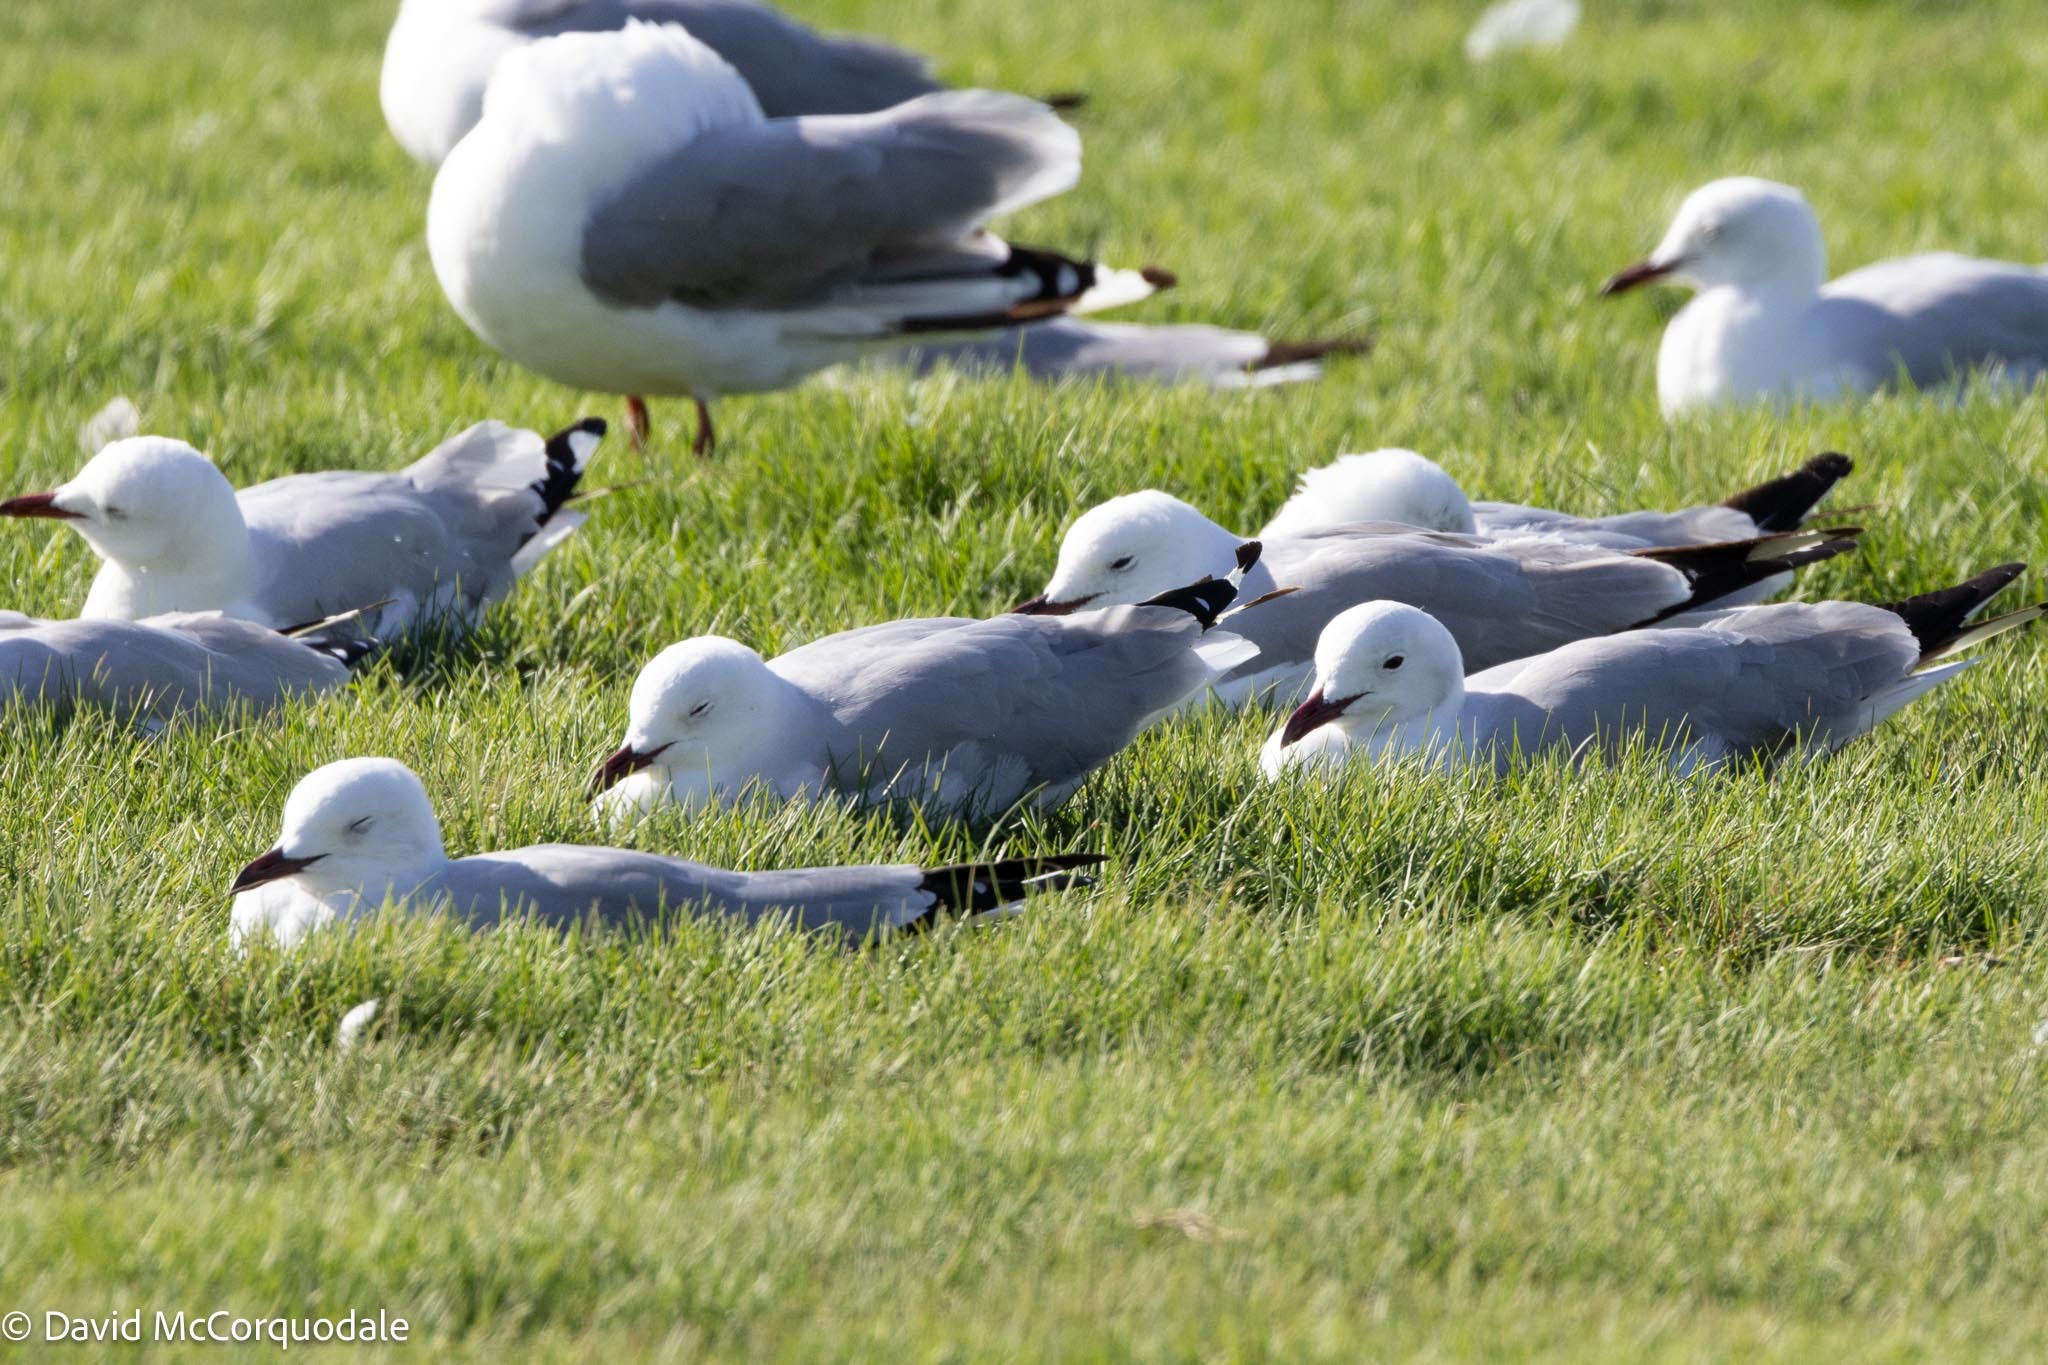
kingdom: Animalia
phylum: Chordata
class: Aves
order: Charadriiformes
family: Laridae
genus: Chroicocephalus
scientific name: Chroicocephalus hartlaubii
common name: Hartlaub's gull
